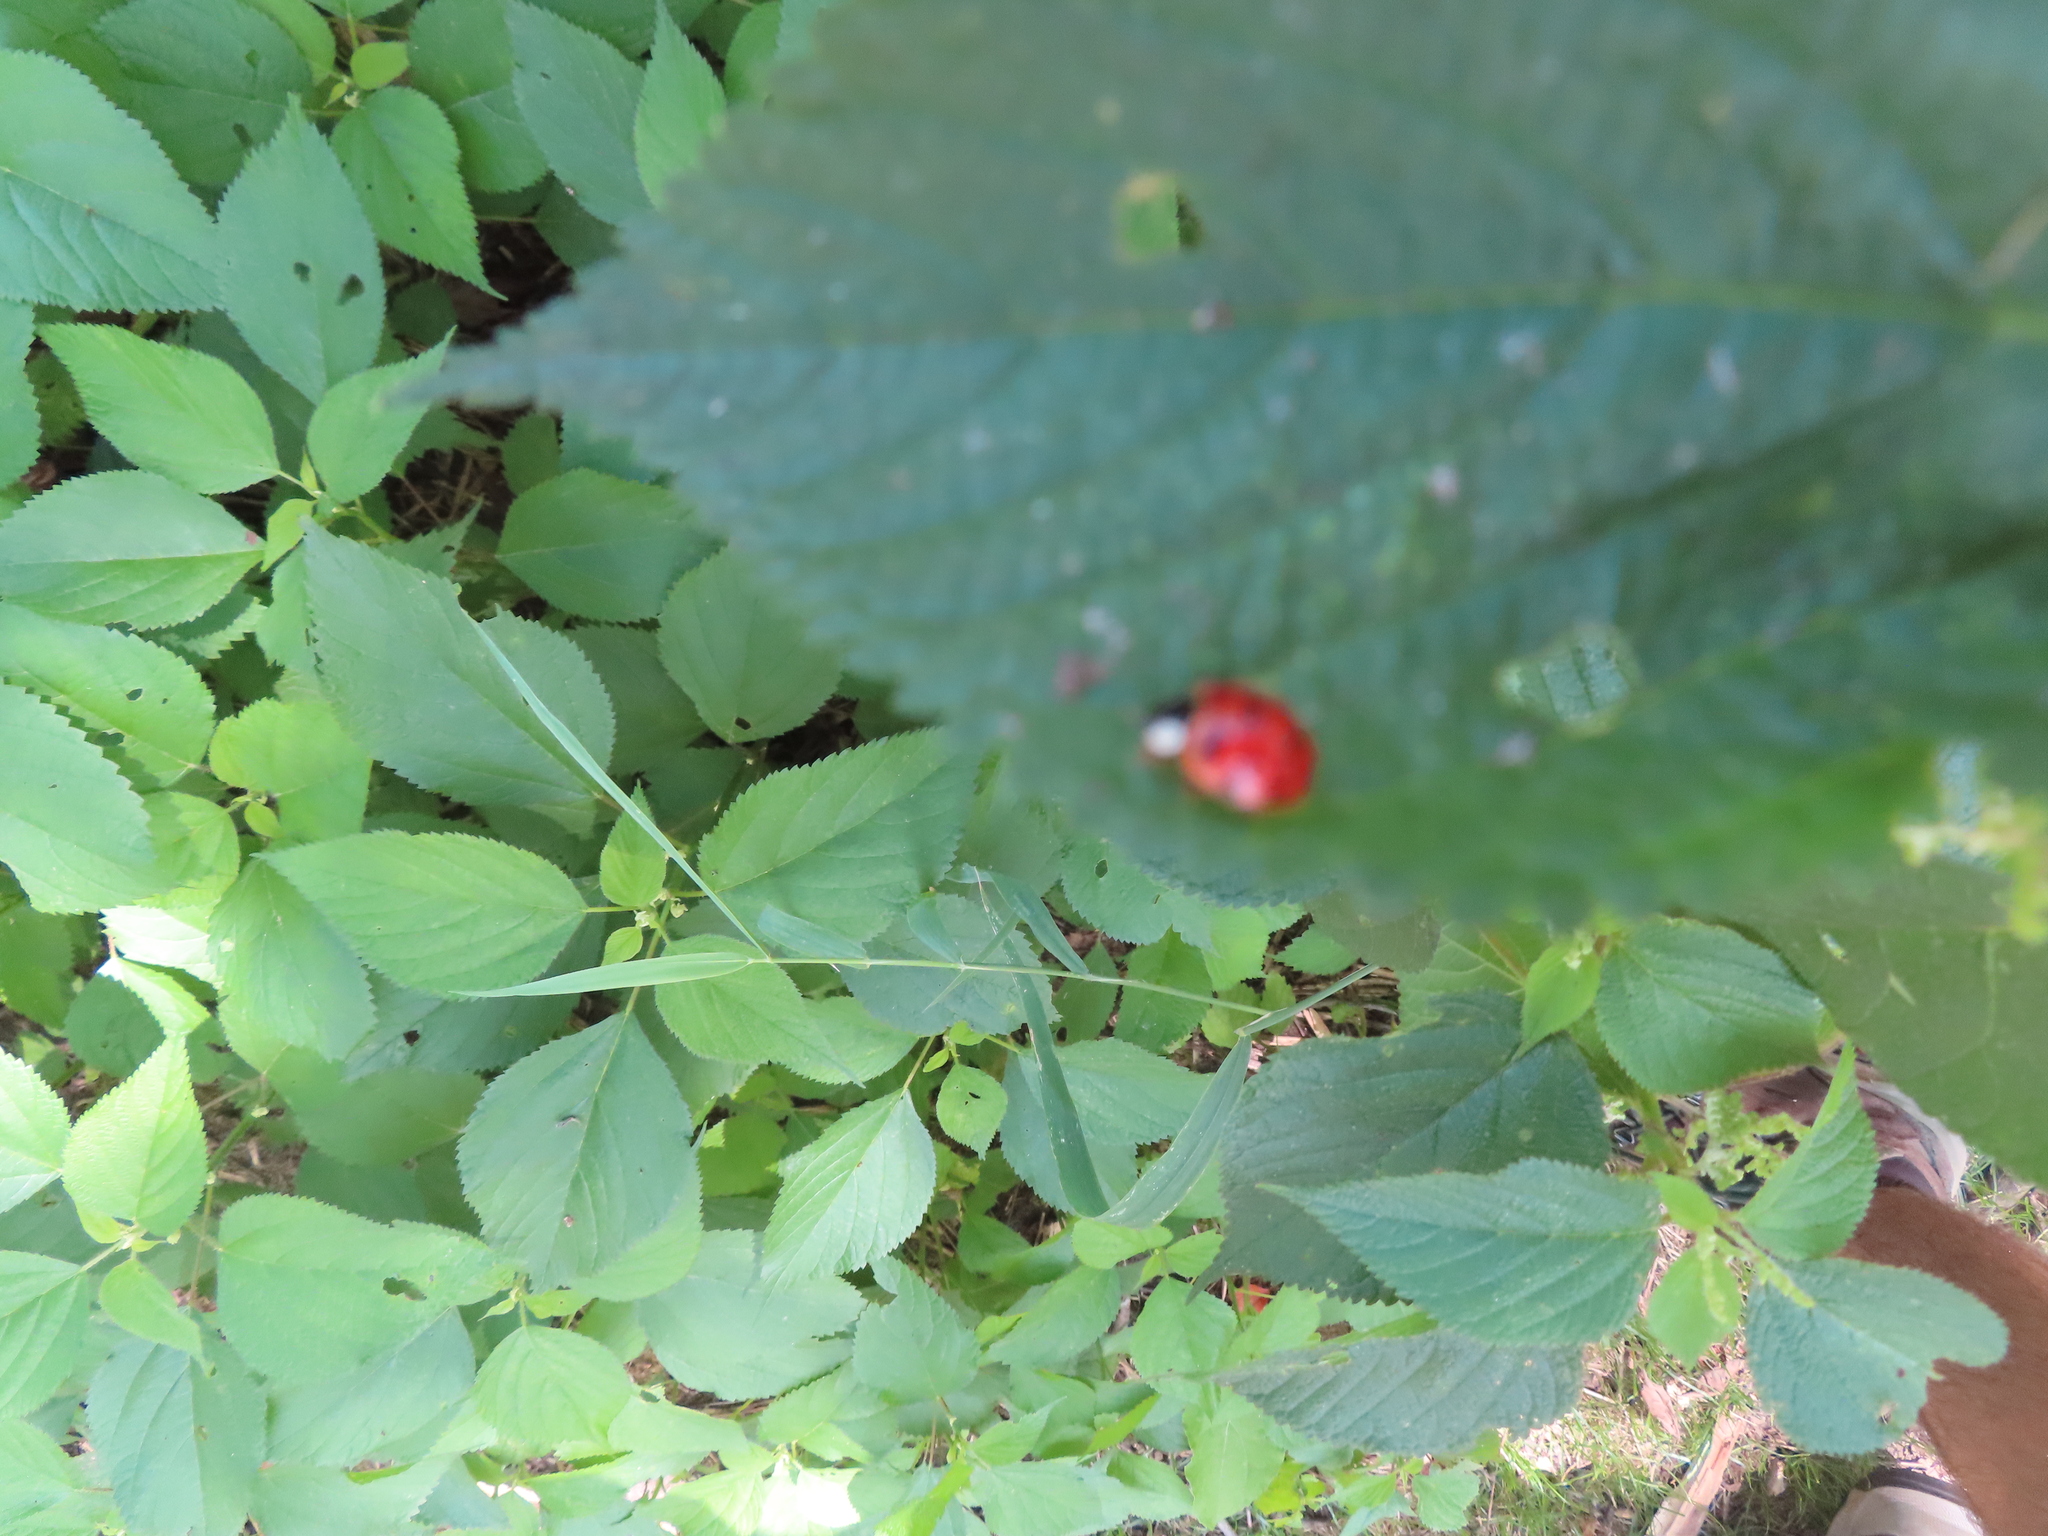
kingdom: Animalia
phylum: Arthropoda
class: Insecta
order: Coleoptera
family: Coccinellidae
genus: Harmonia
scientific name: Harmonia axyridis
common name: Harlequin ladybird
